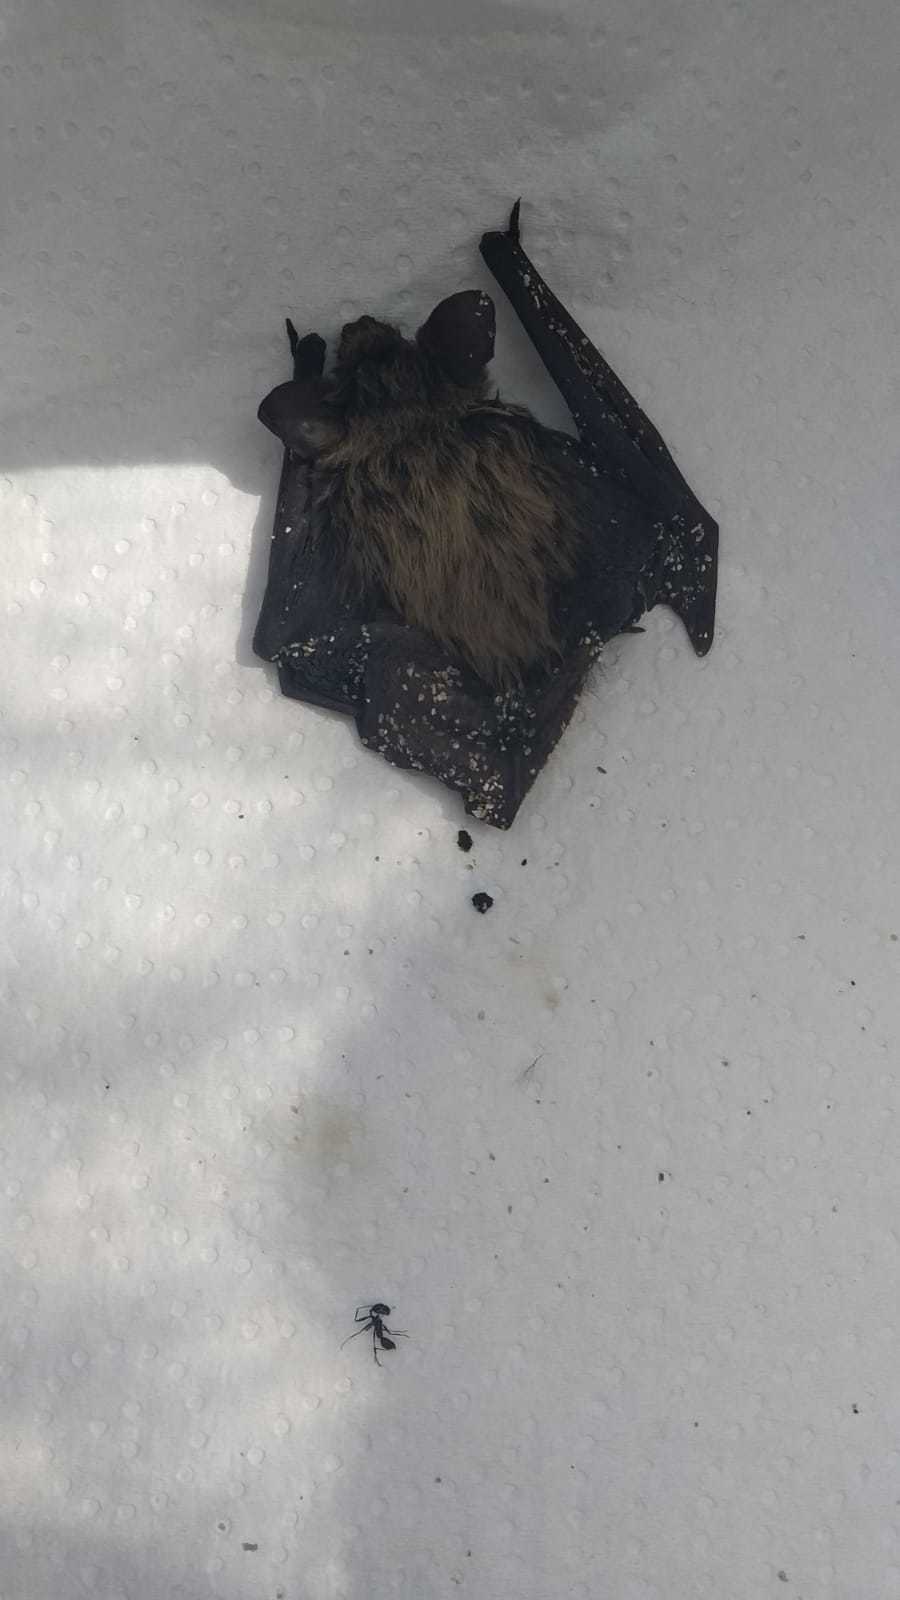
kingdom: Animalia
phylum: Chordata
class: Mammalia
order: Chiroptera
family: Vespertilionidae
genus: Hypsugo
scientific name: Hypsugo savii
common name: Savi's pipistrelle
